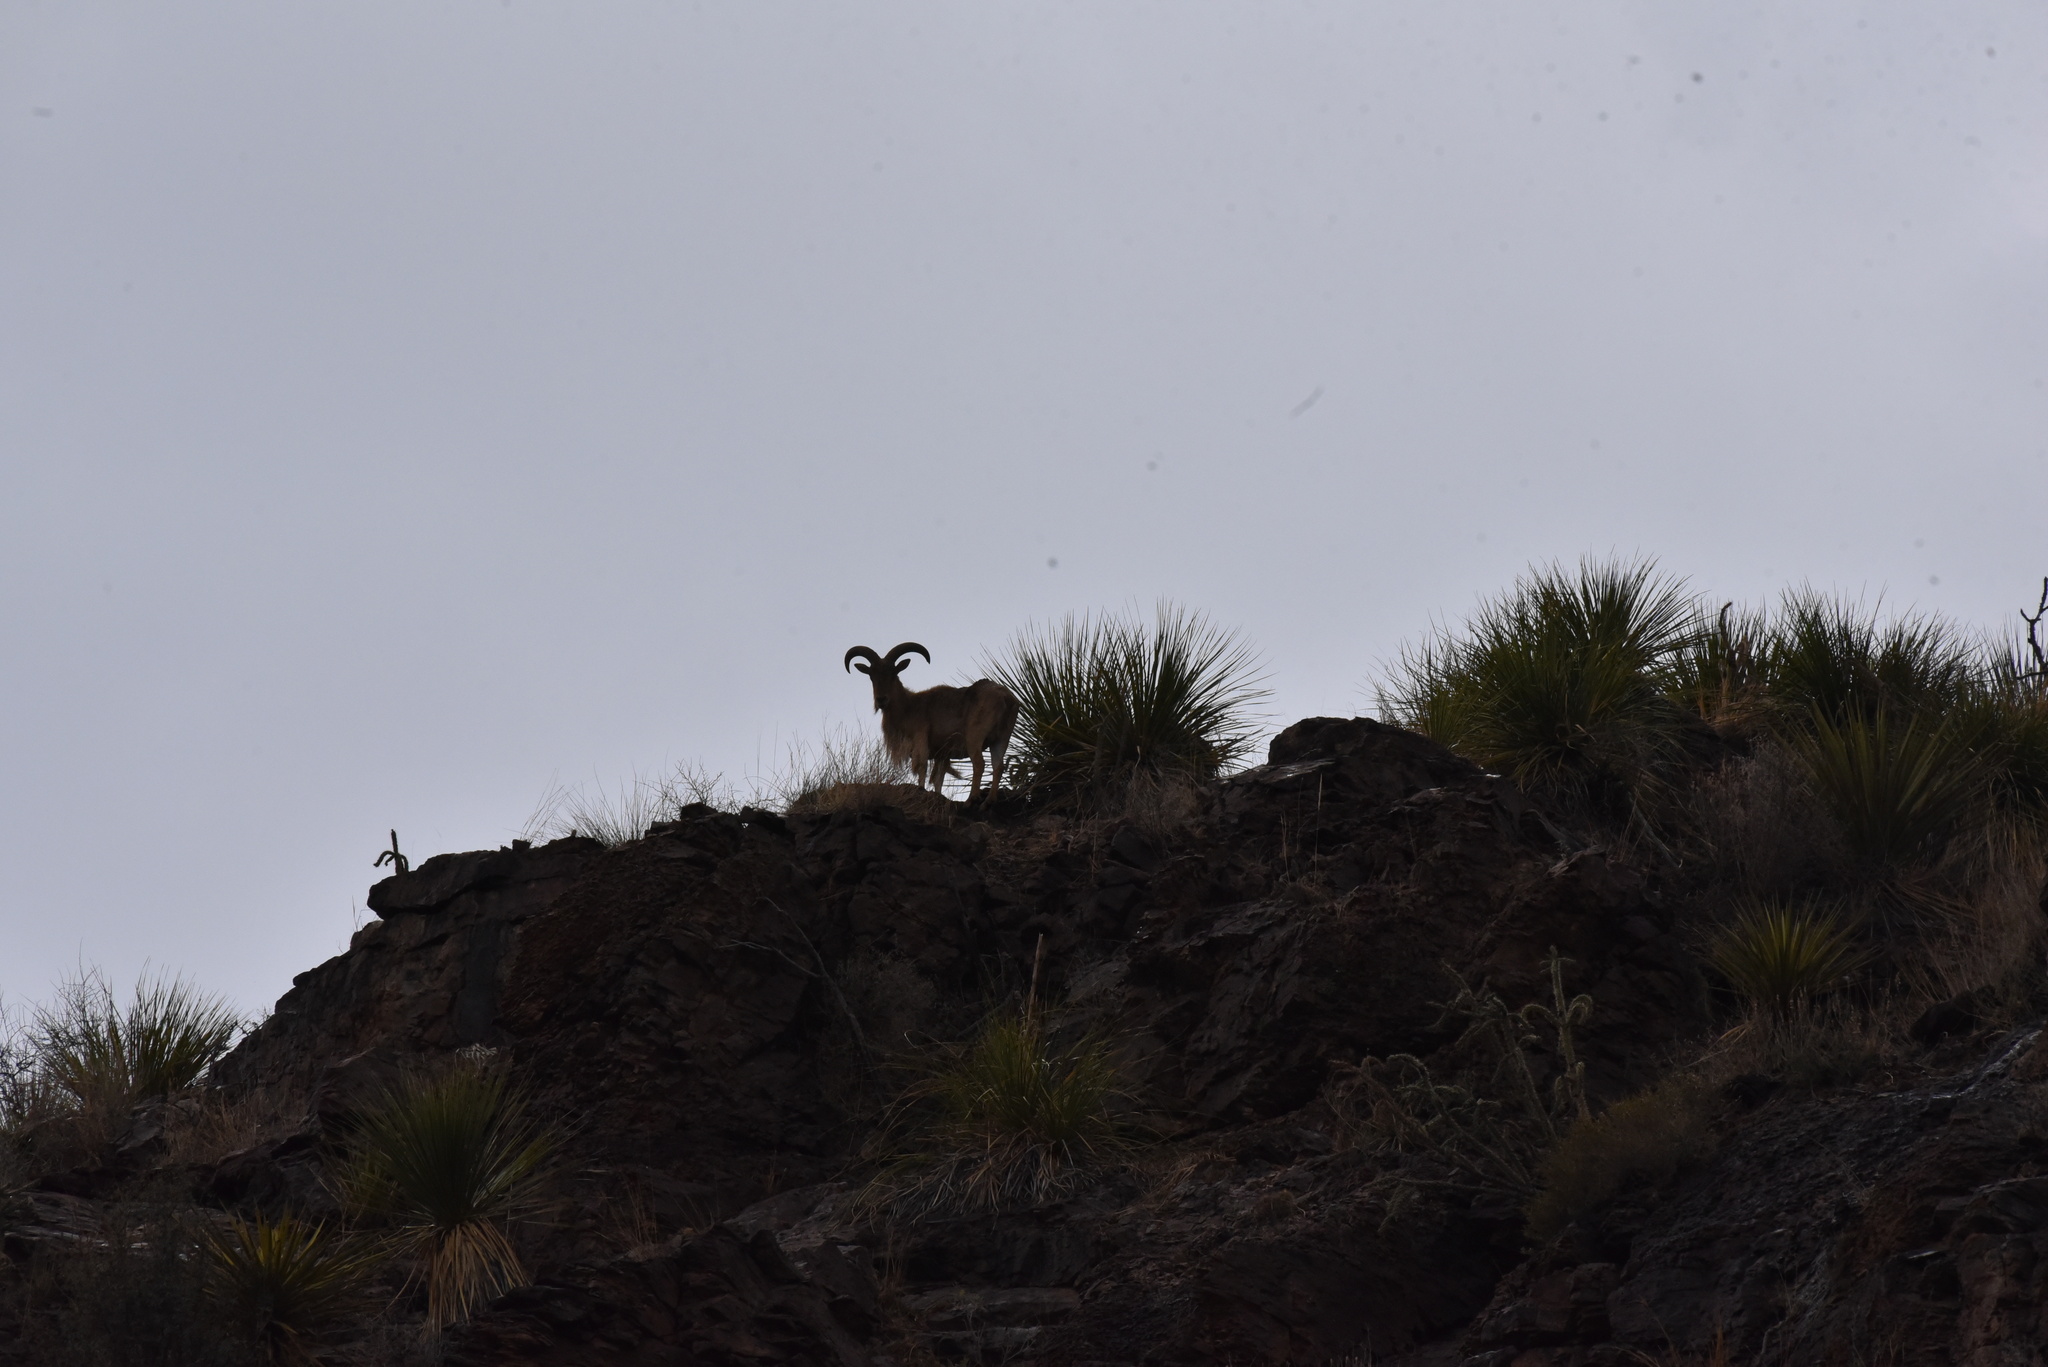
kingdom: Animalia
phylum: Chordata
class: Mammalia
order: Artiodactyla
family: Bovidae
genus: Ammotragus
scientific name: Ammotragus lervia
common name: Barbary sheep
